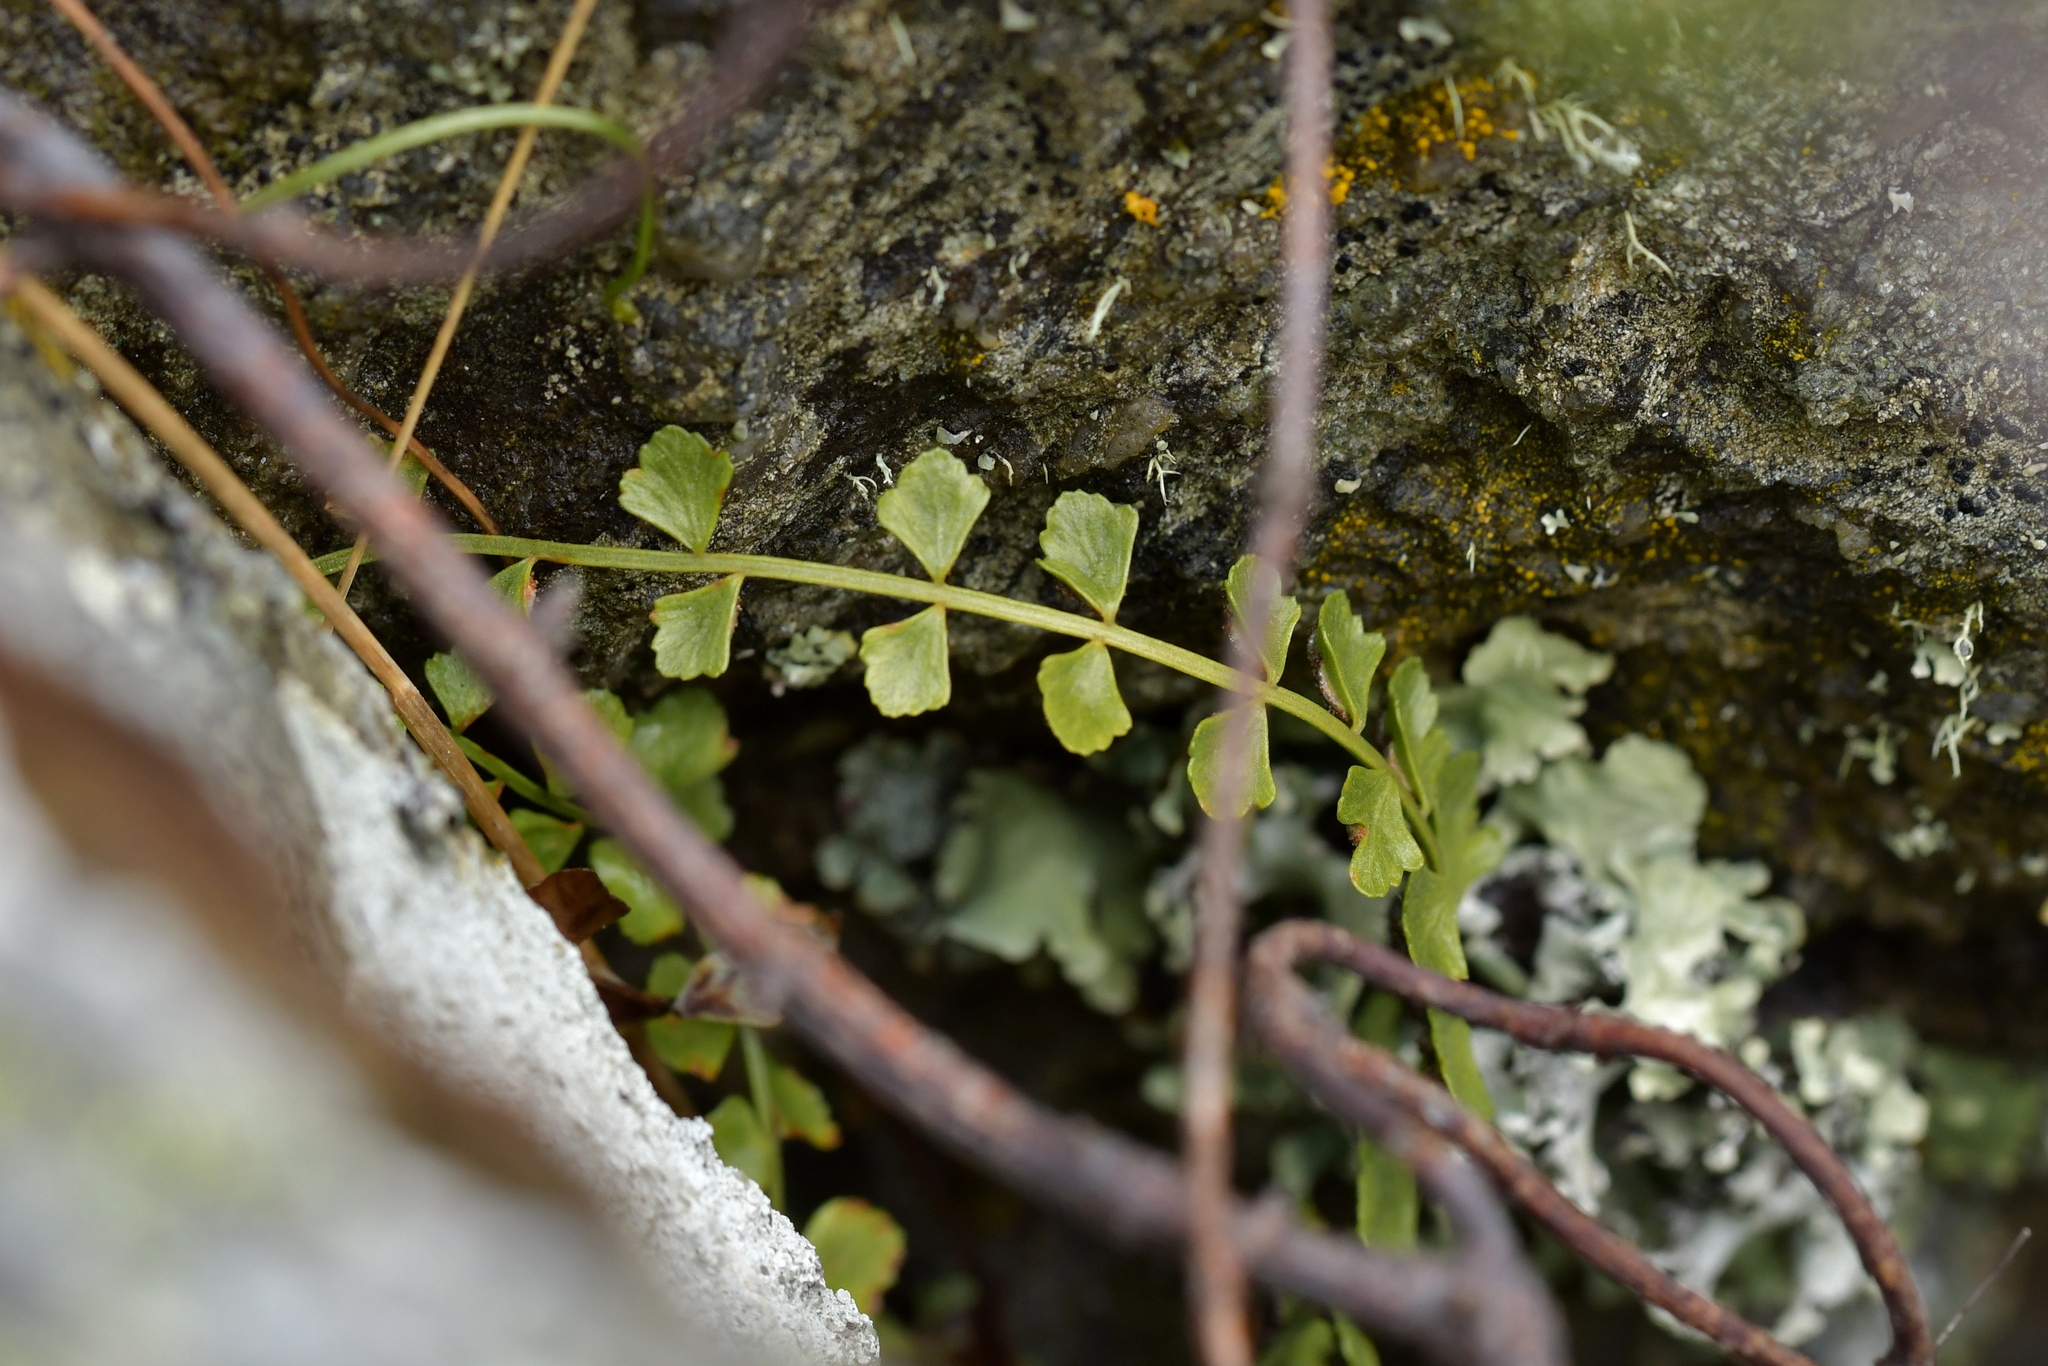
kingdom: Plantae
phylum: Tracheophyta
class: Polypodiopsida
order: Polypodiales
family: Aspleniaceae
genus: Asplenium
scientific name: Asplenium flabellifolium
